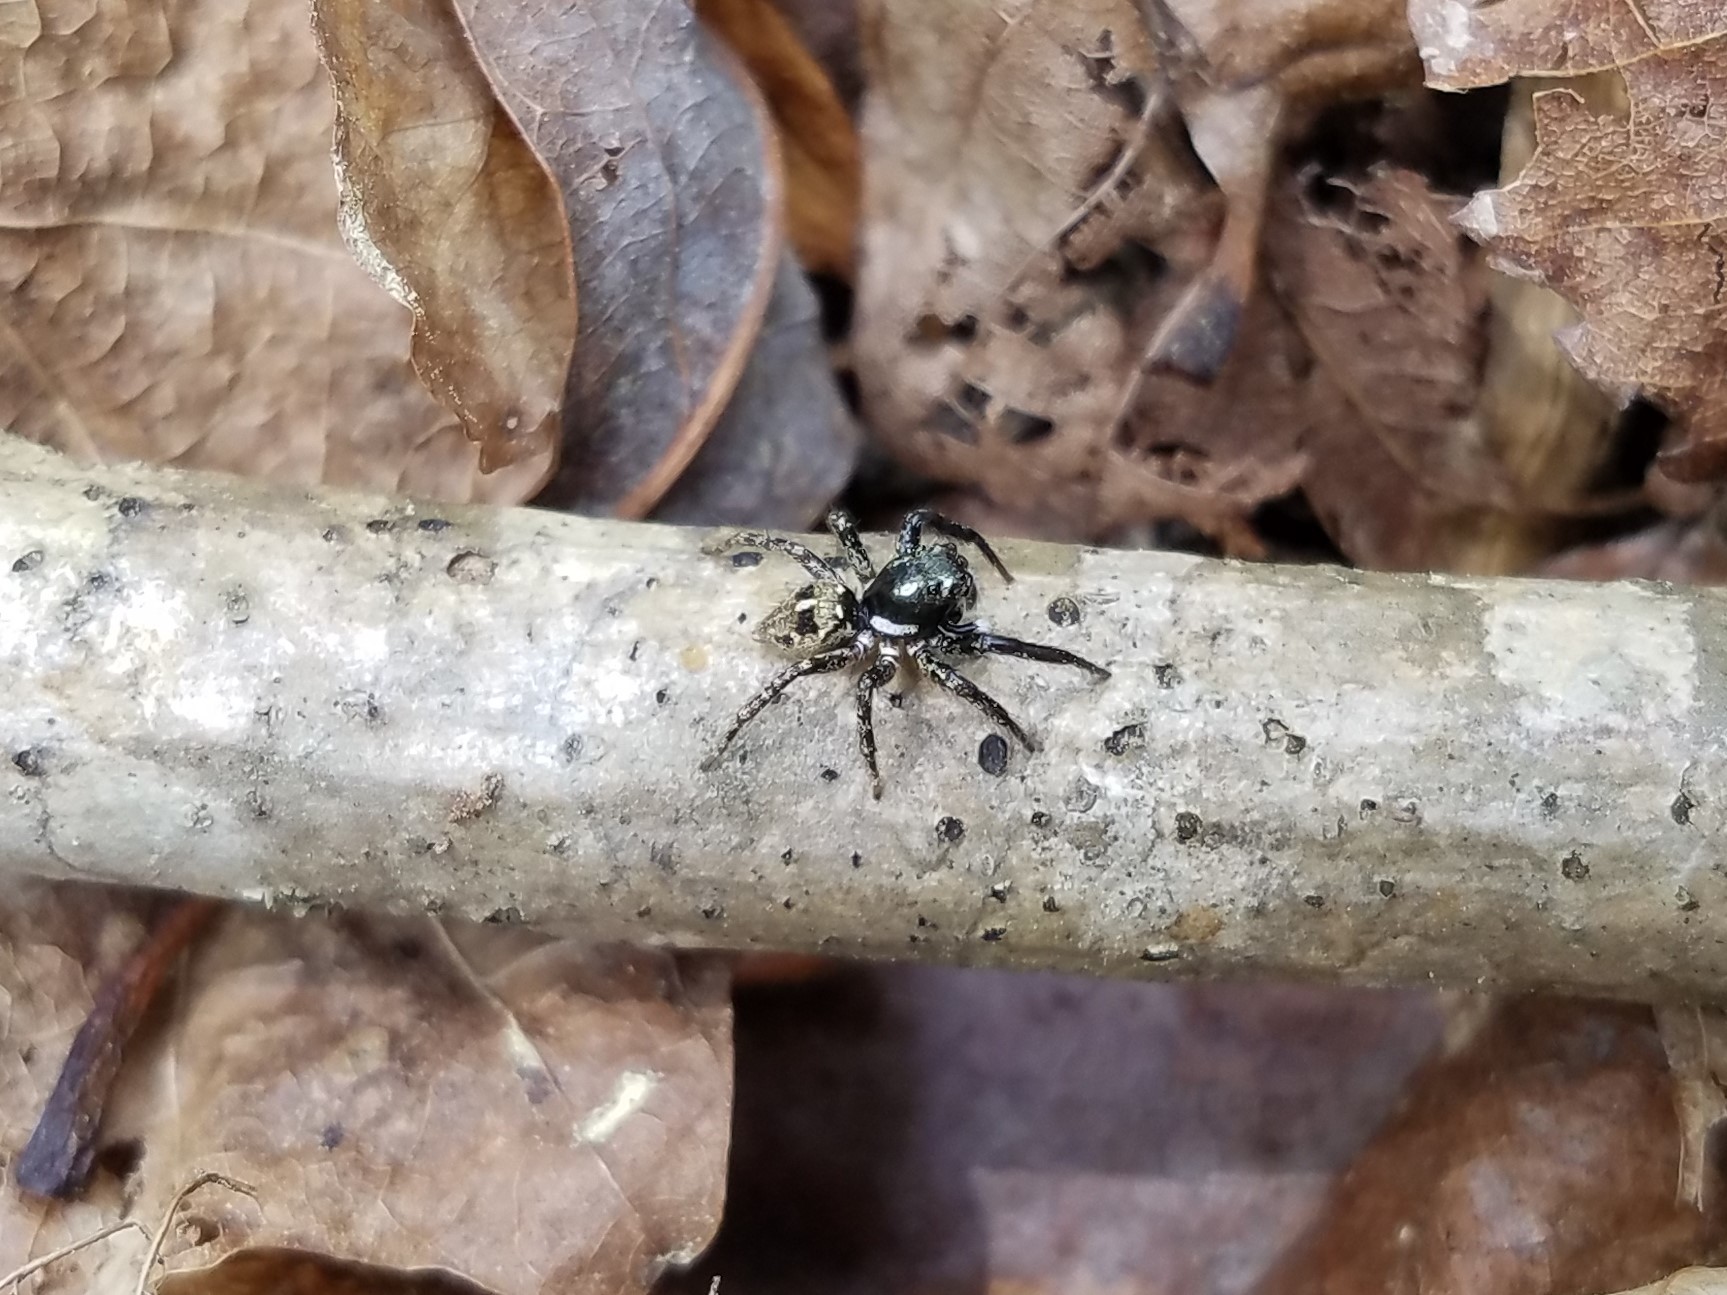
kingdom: Animalia
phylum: Arthropoda
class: Arachnida
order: Araneae
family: Salticidae
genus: Anasaitis
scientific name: Anasaitis canosa
